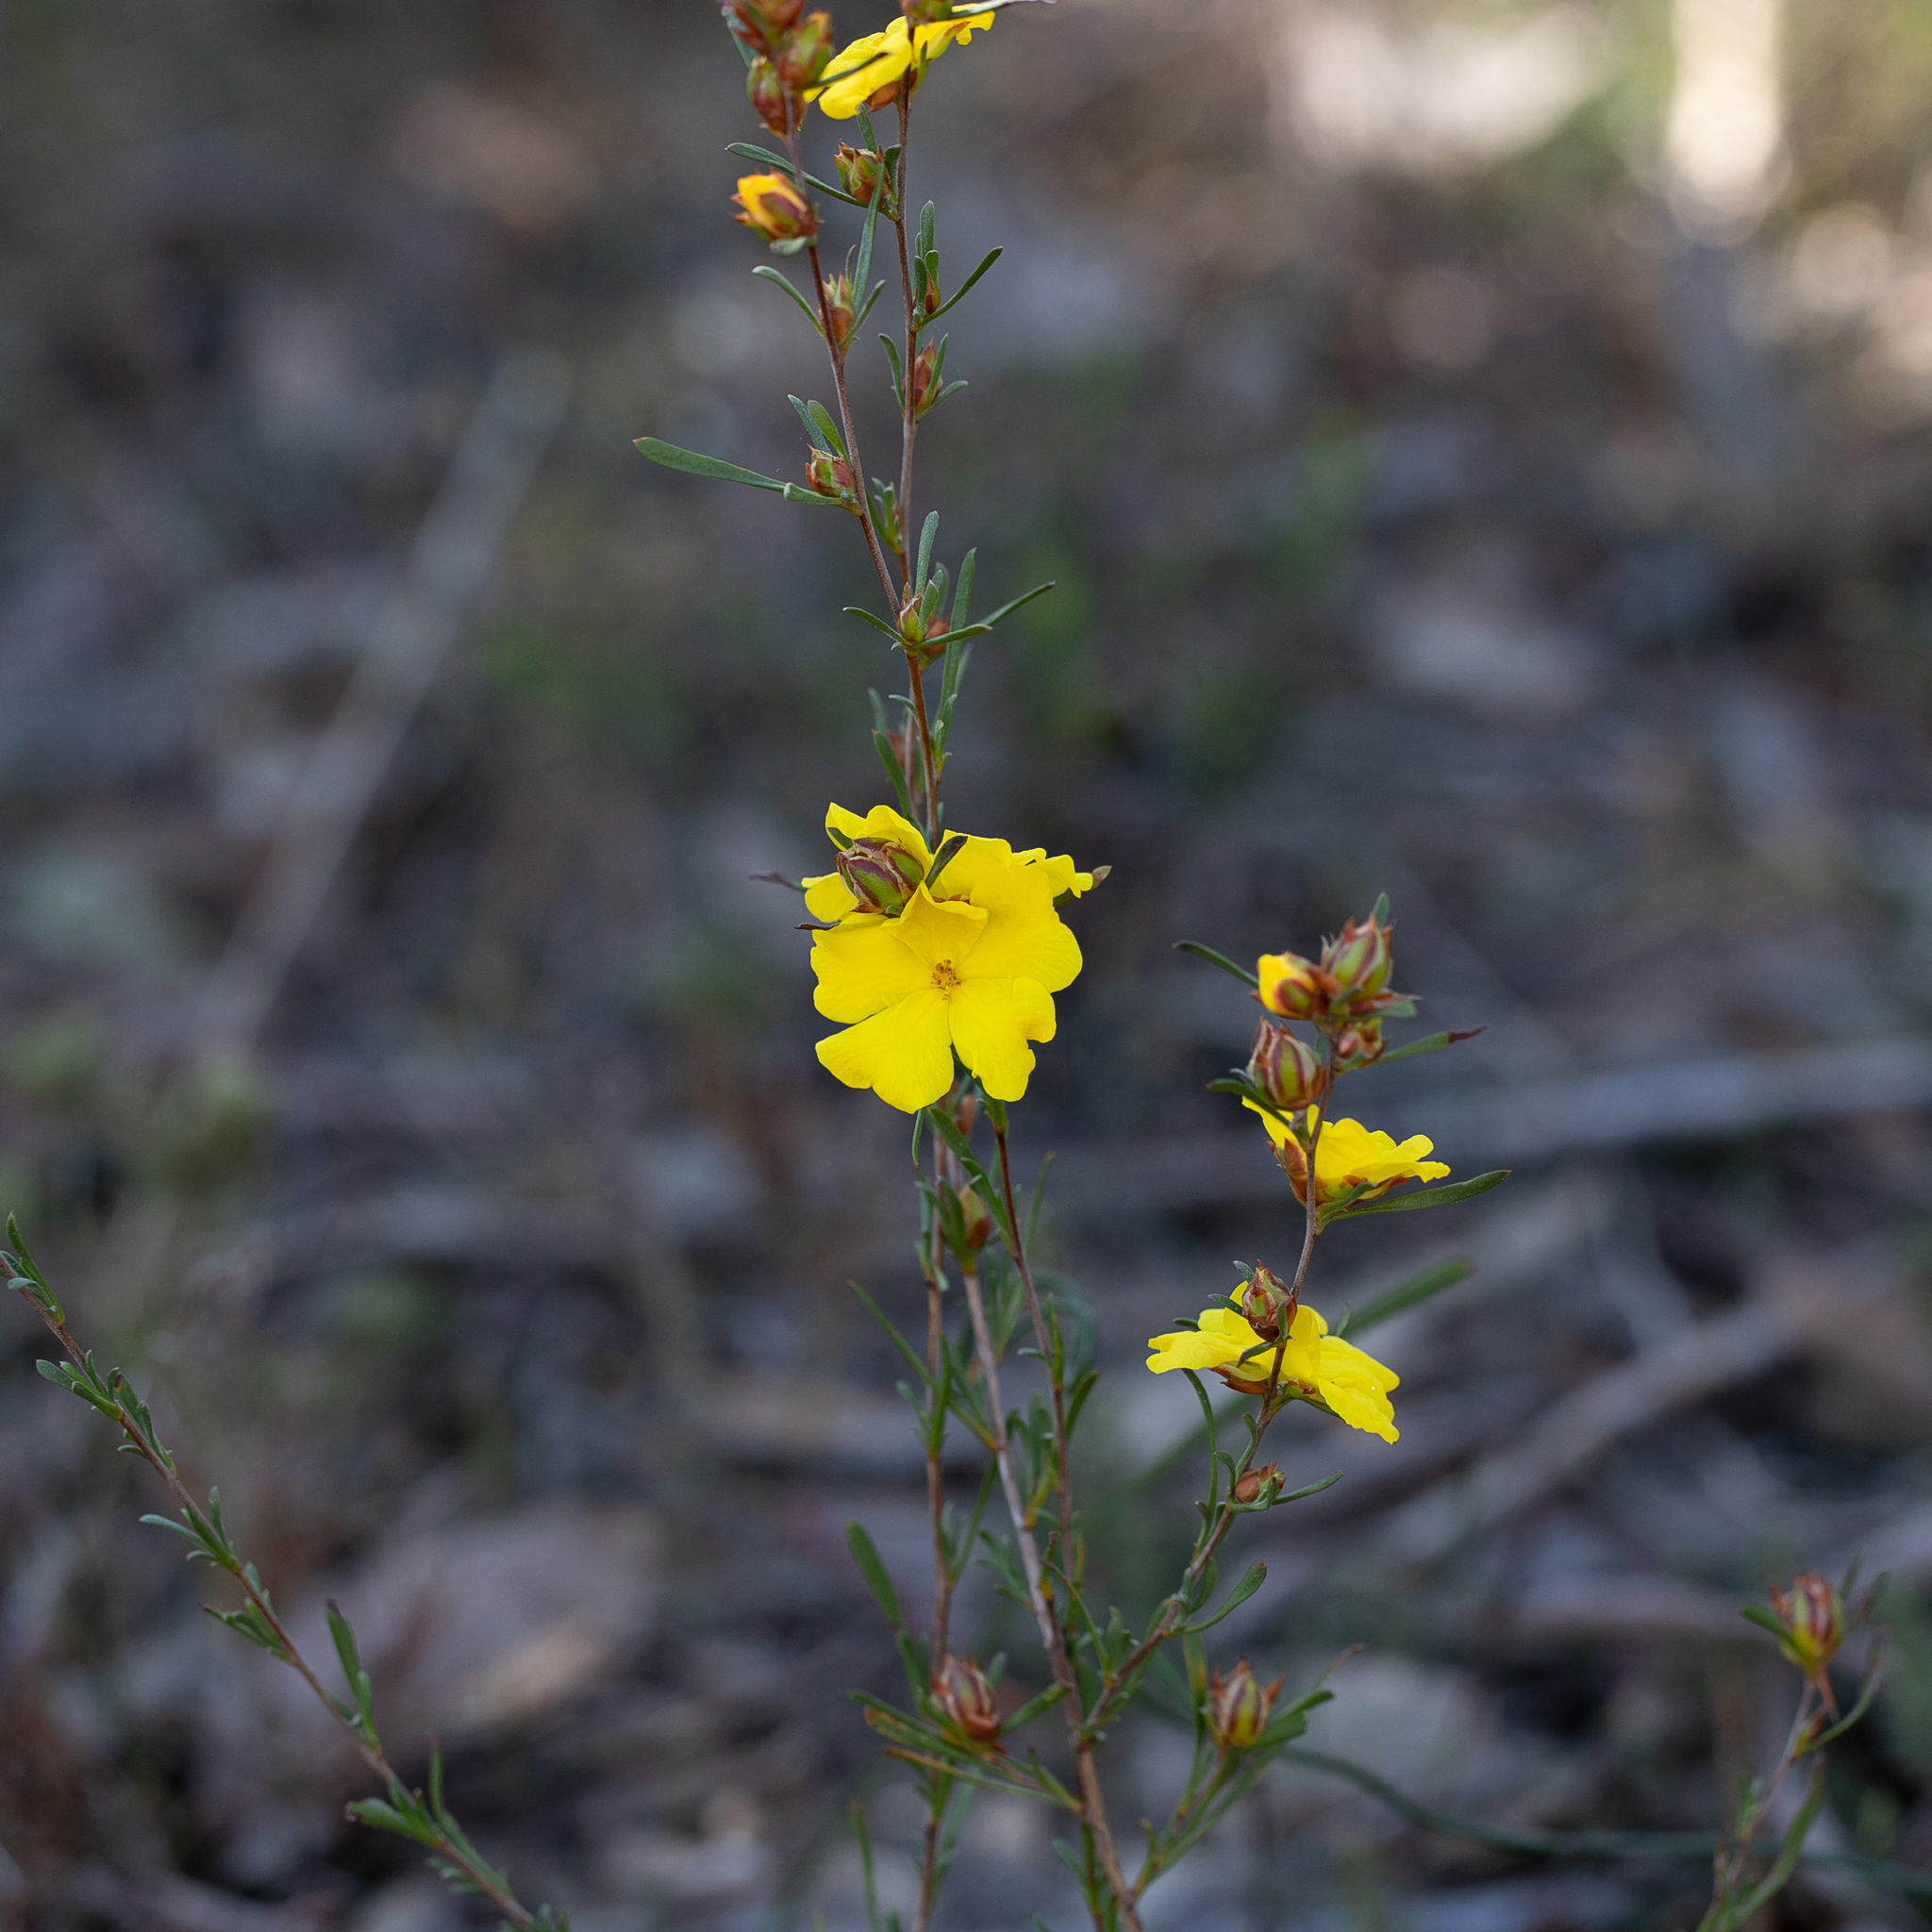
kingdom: Plantae
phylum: Tracheophyta
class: Magnoliopsida
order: Dilleniales
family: Dilleniaceae
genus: Hibbertia
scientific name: Hibbertia virgata
